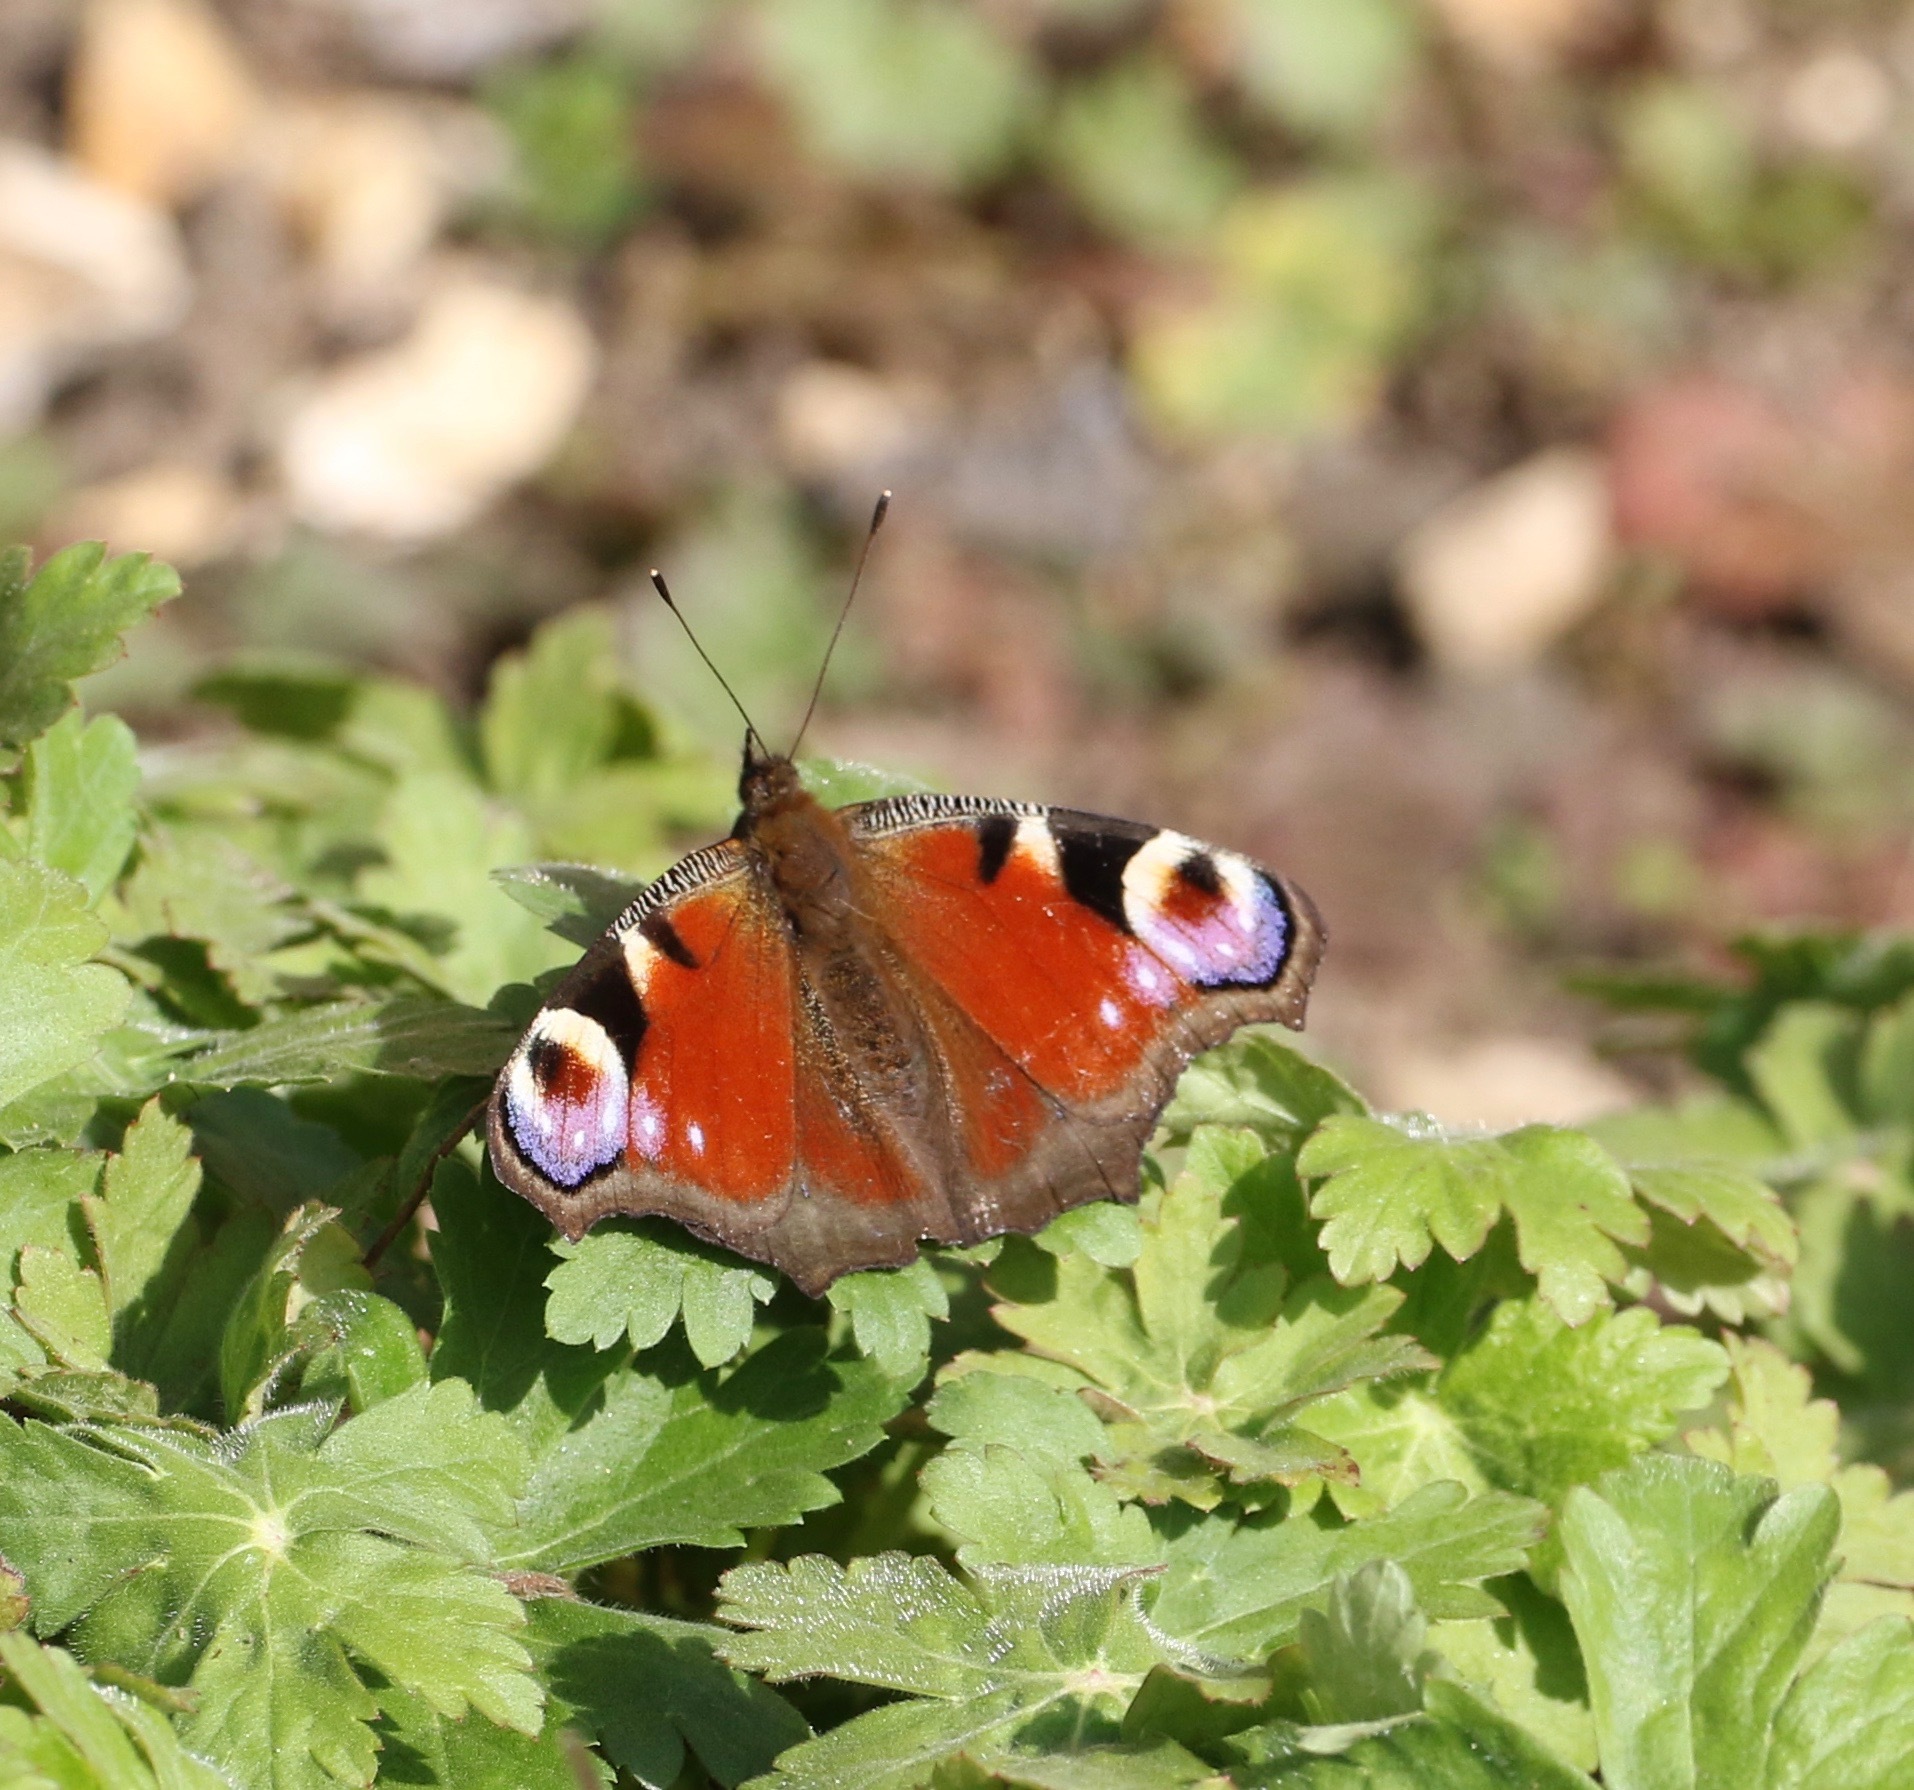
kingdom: Animalia
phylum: Arthropoda
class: Insecta
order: Lepidoptera
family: Nymphalidae
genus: Aglais
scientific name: Aglais io
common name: Peacock
